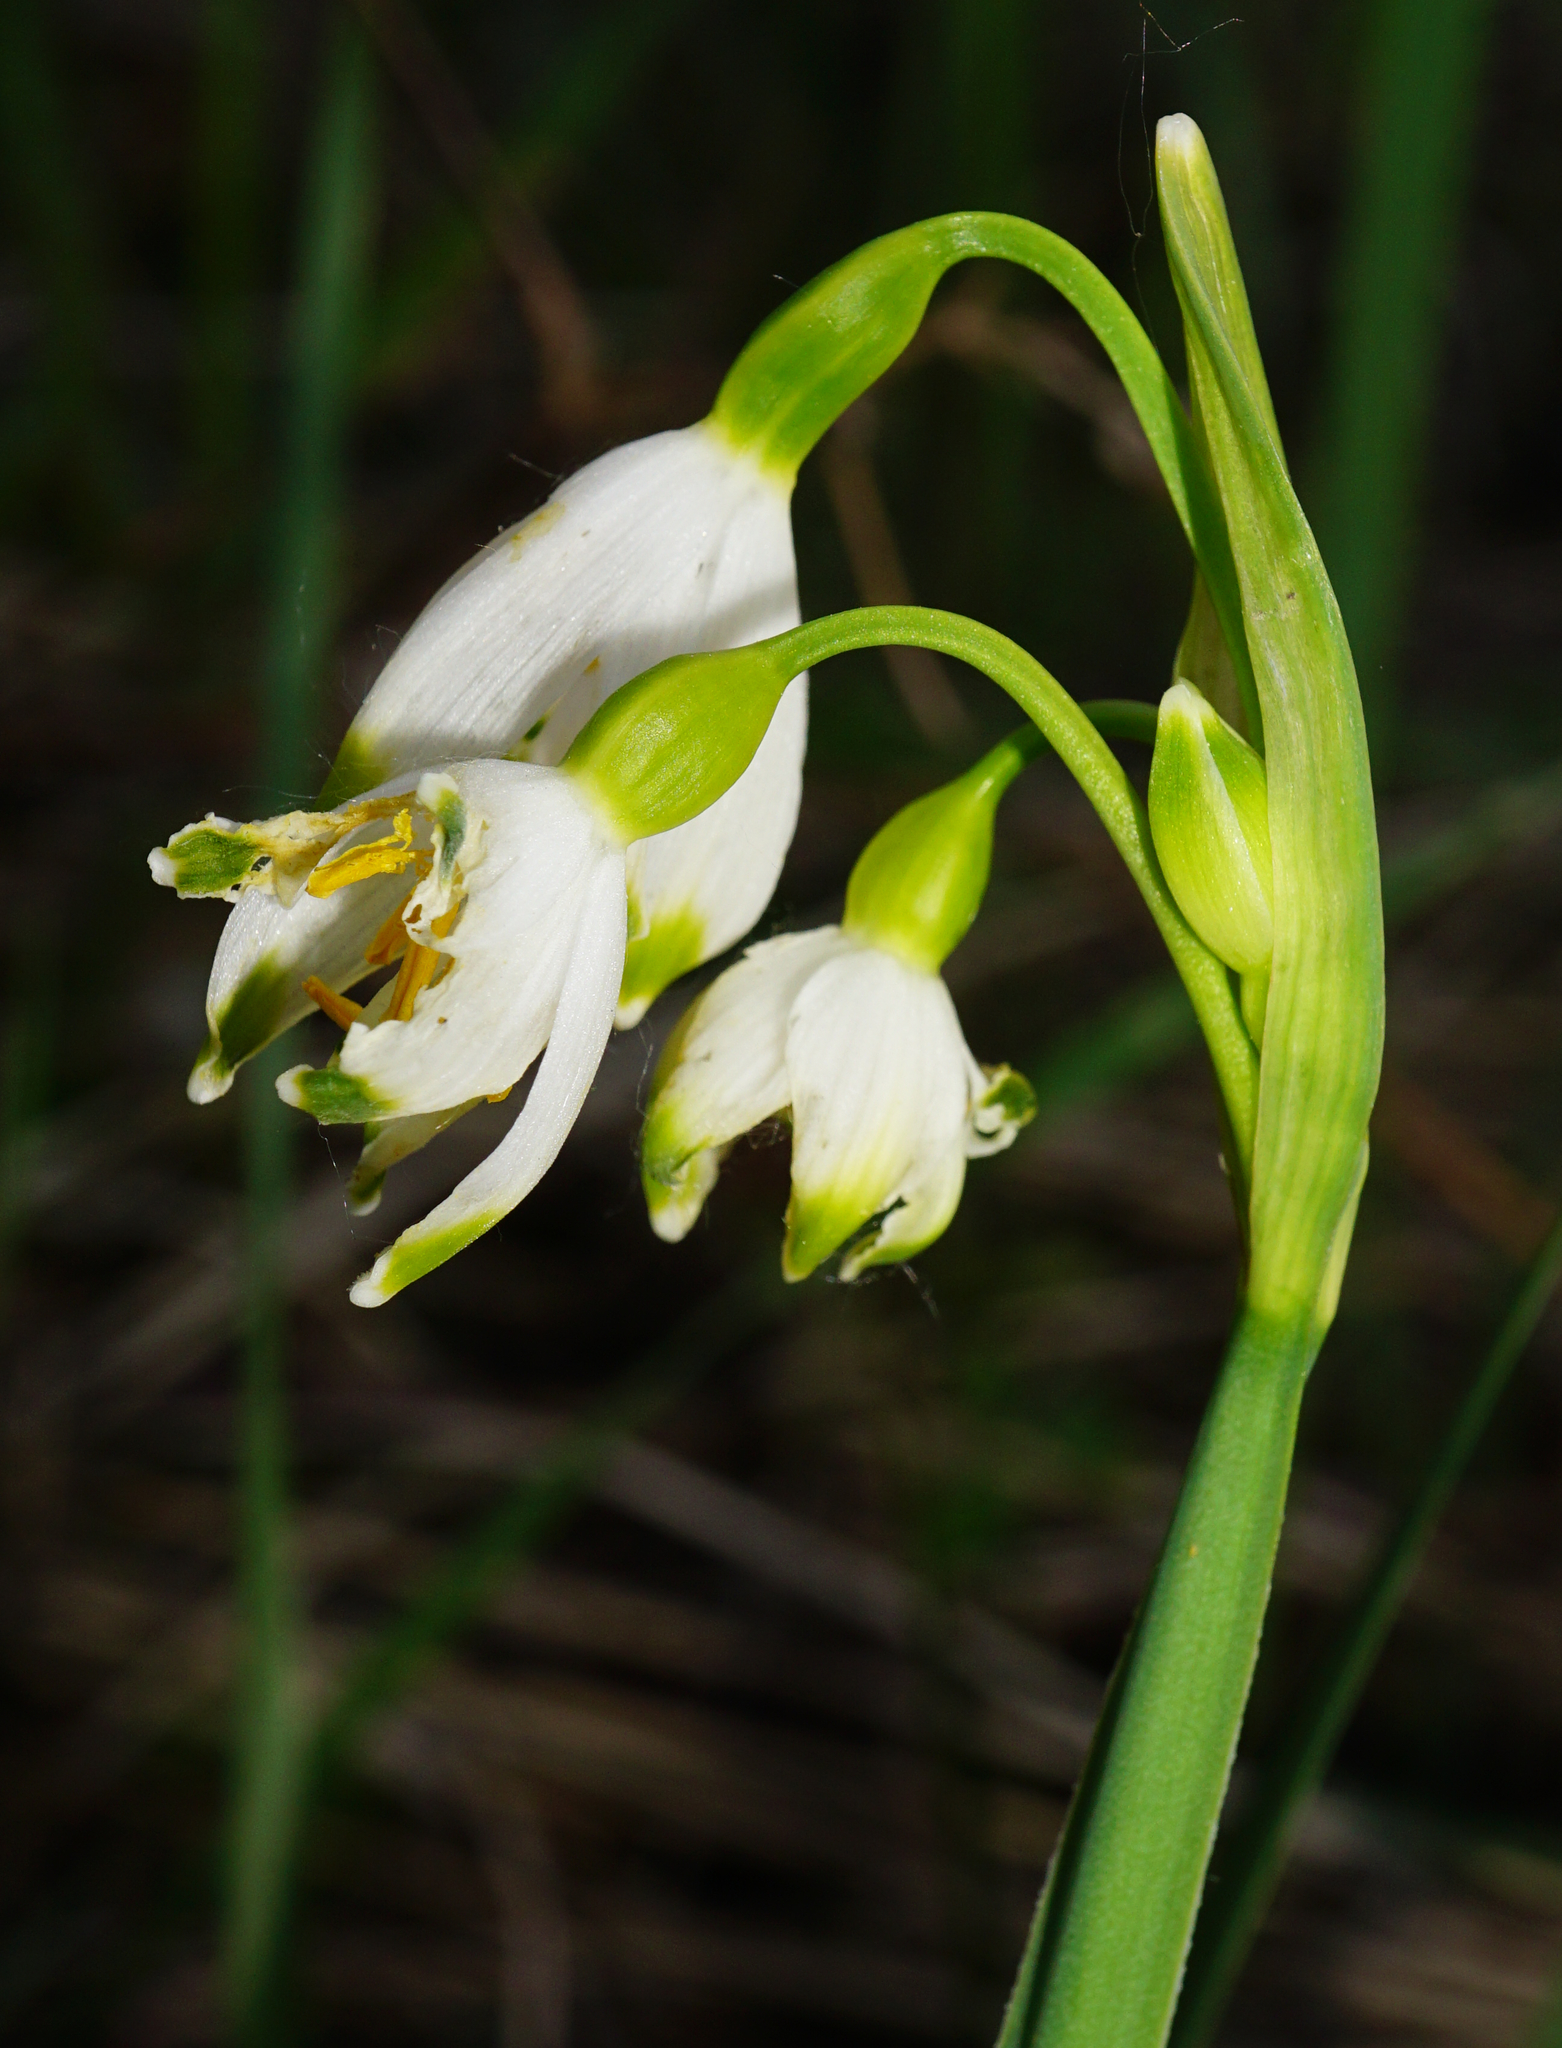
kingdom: Plantae
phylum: Tracheophyta
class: Liliopsida
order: Asparagales
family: Amaryllidaceae
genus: Leucojum
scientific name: Leucojum aestivum
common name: Summer snowflake
